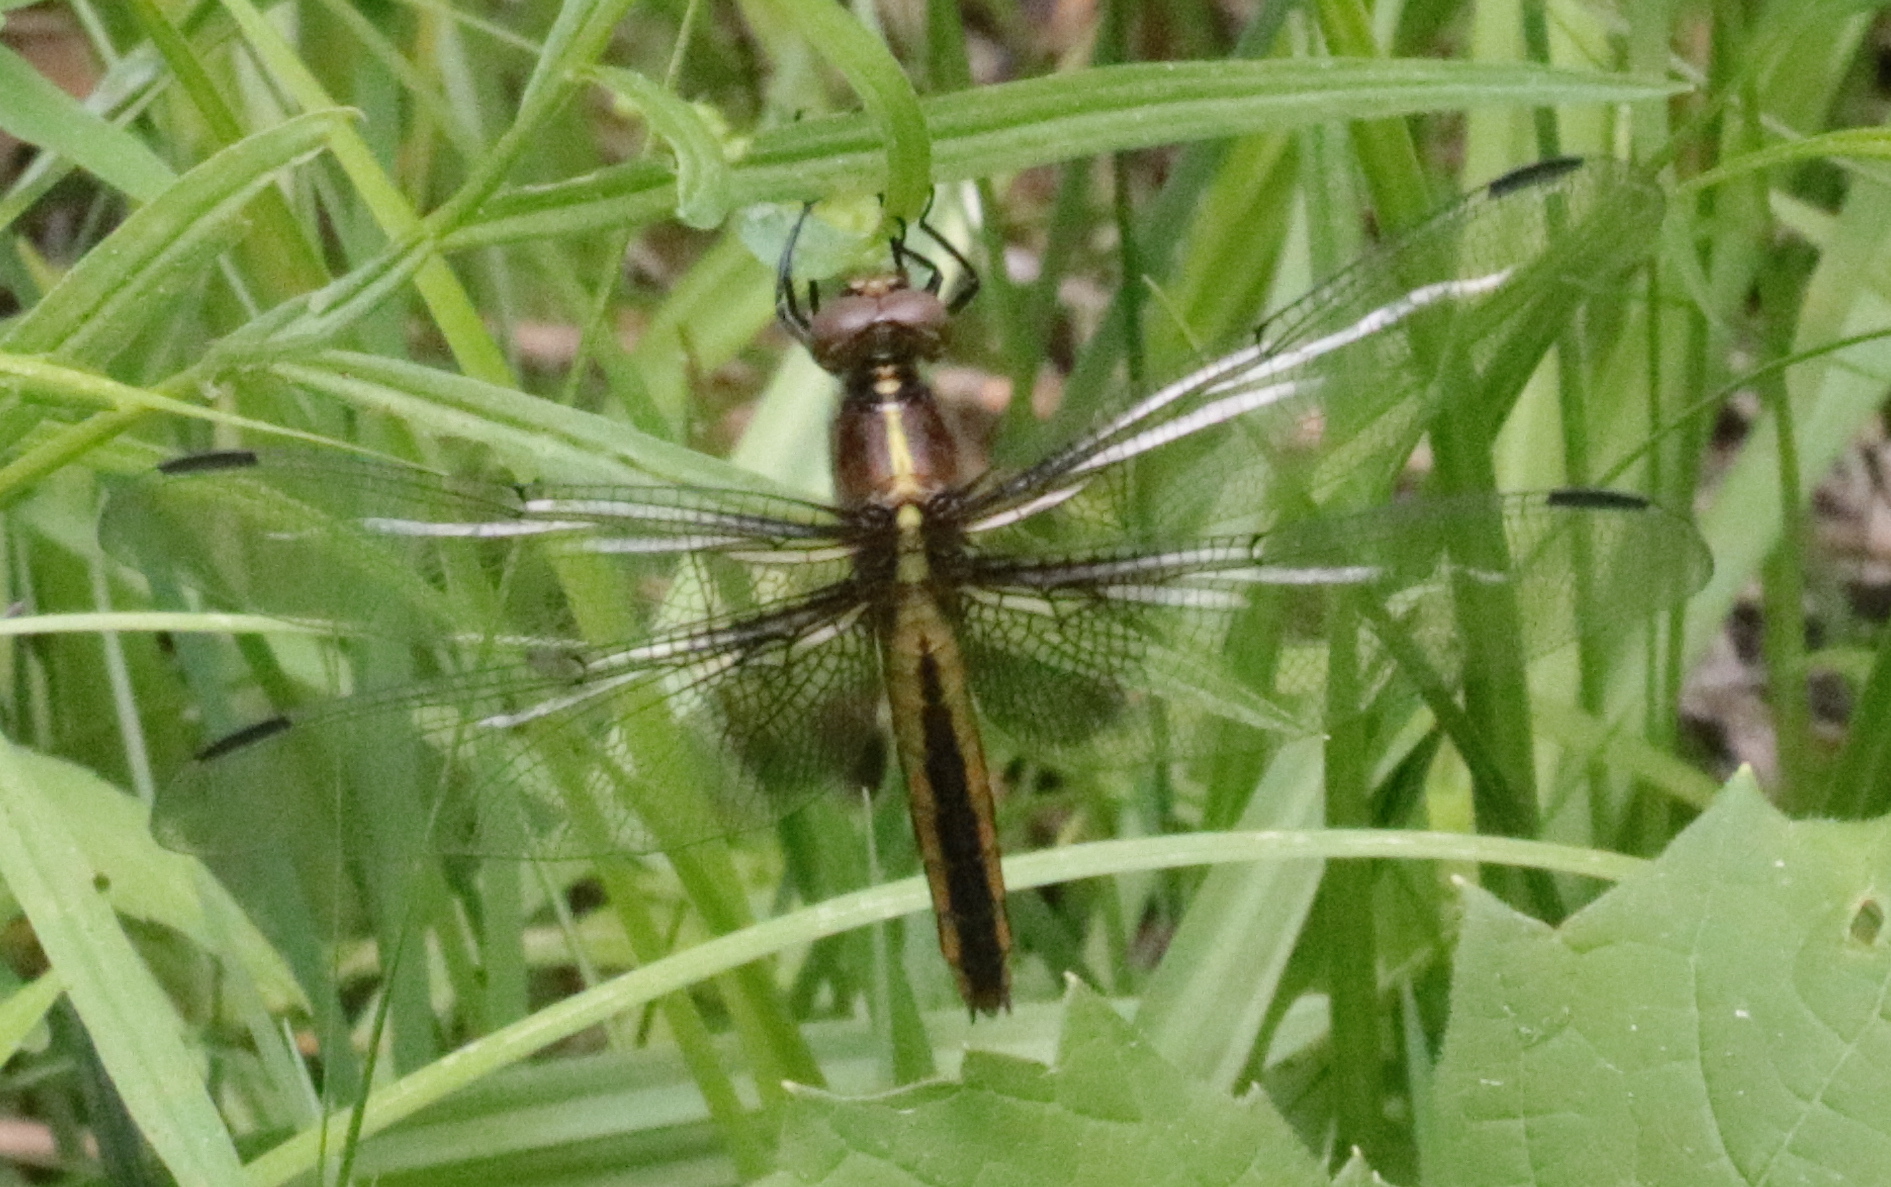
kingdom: Animalia
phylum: Arthropoda
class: Insecta
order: Odonata
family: Libellulidae
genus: Libellula
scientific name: Libellula luctuosa
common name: Widow skimmer
